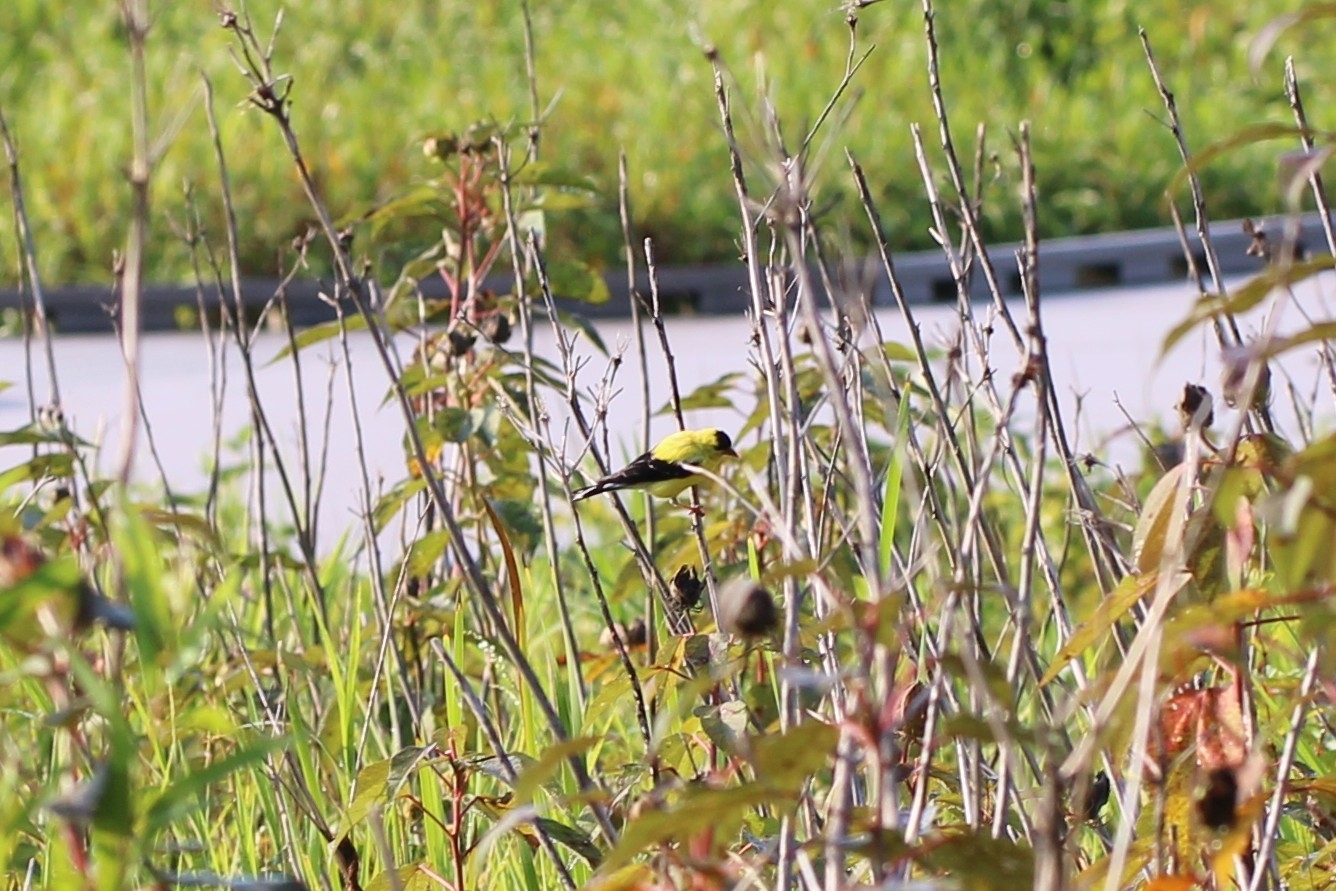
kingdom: Animalia
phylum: Chordata
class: Aves
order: Passeriformes
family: Fringillidae
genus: Spinus
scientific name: Spinus tristis
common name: American goldfinch
